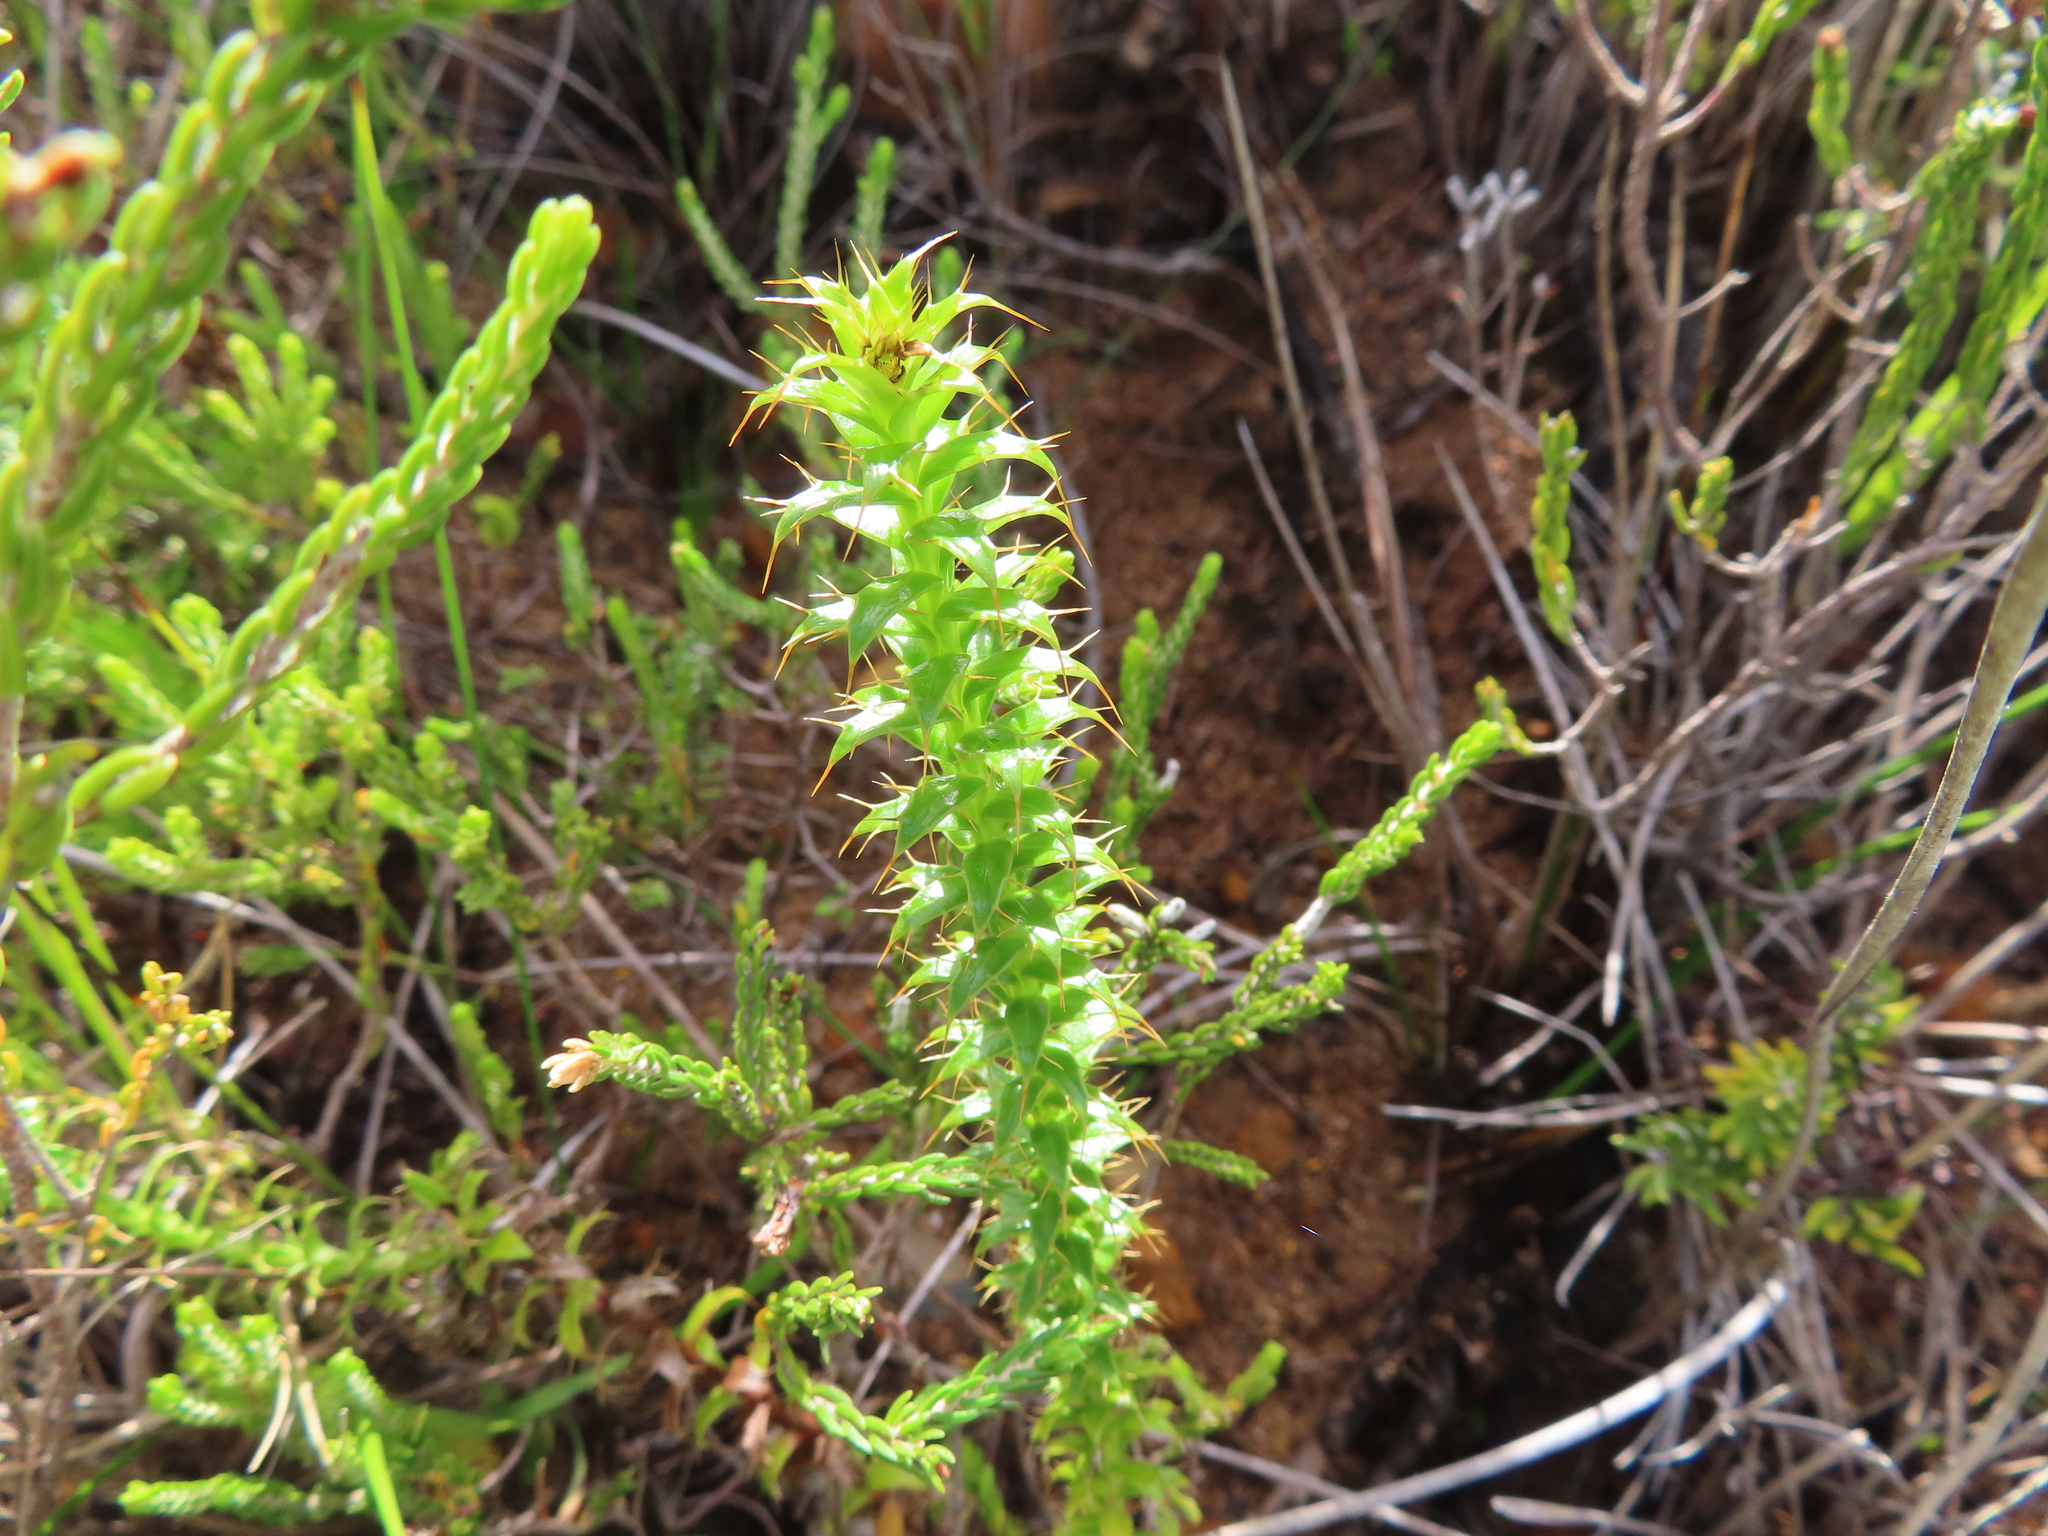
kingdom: Plantae
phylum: Tracheophyta
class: Magnoliopsida
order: Asterales
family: Asteraceae
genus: Cullumia
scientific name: Cullumia setosa
